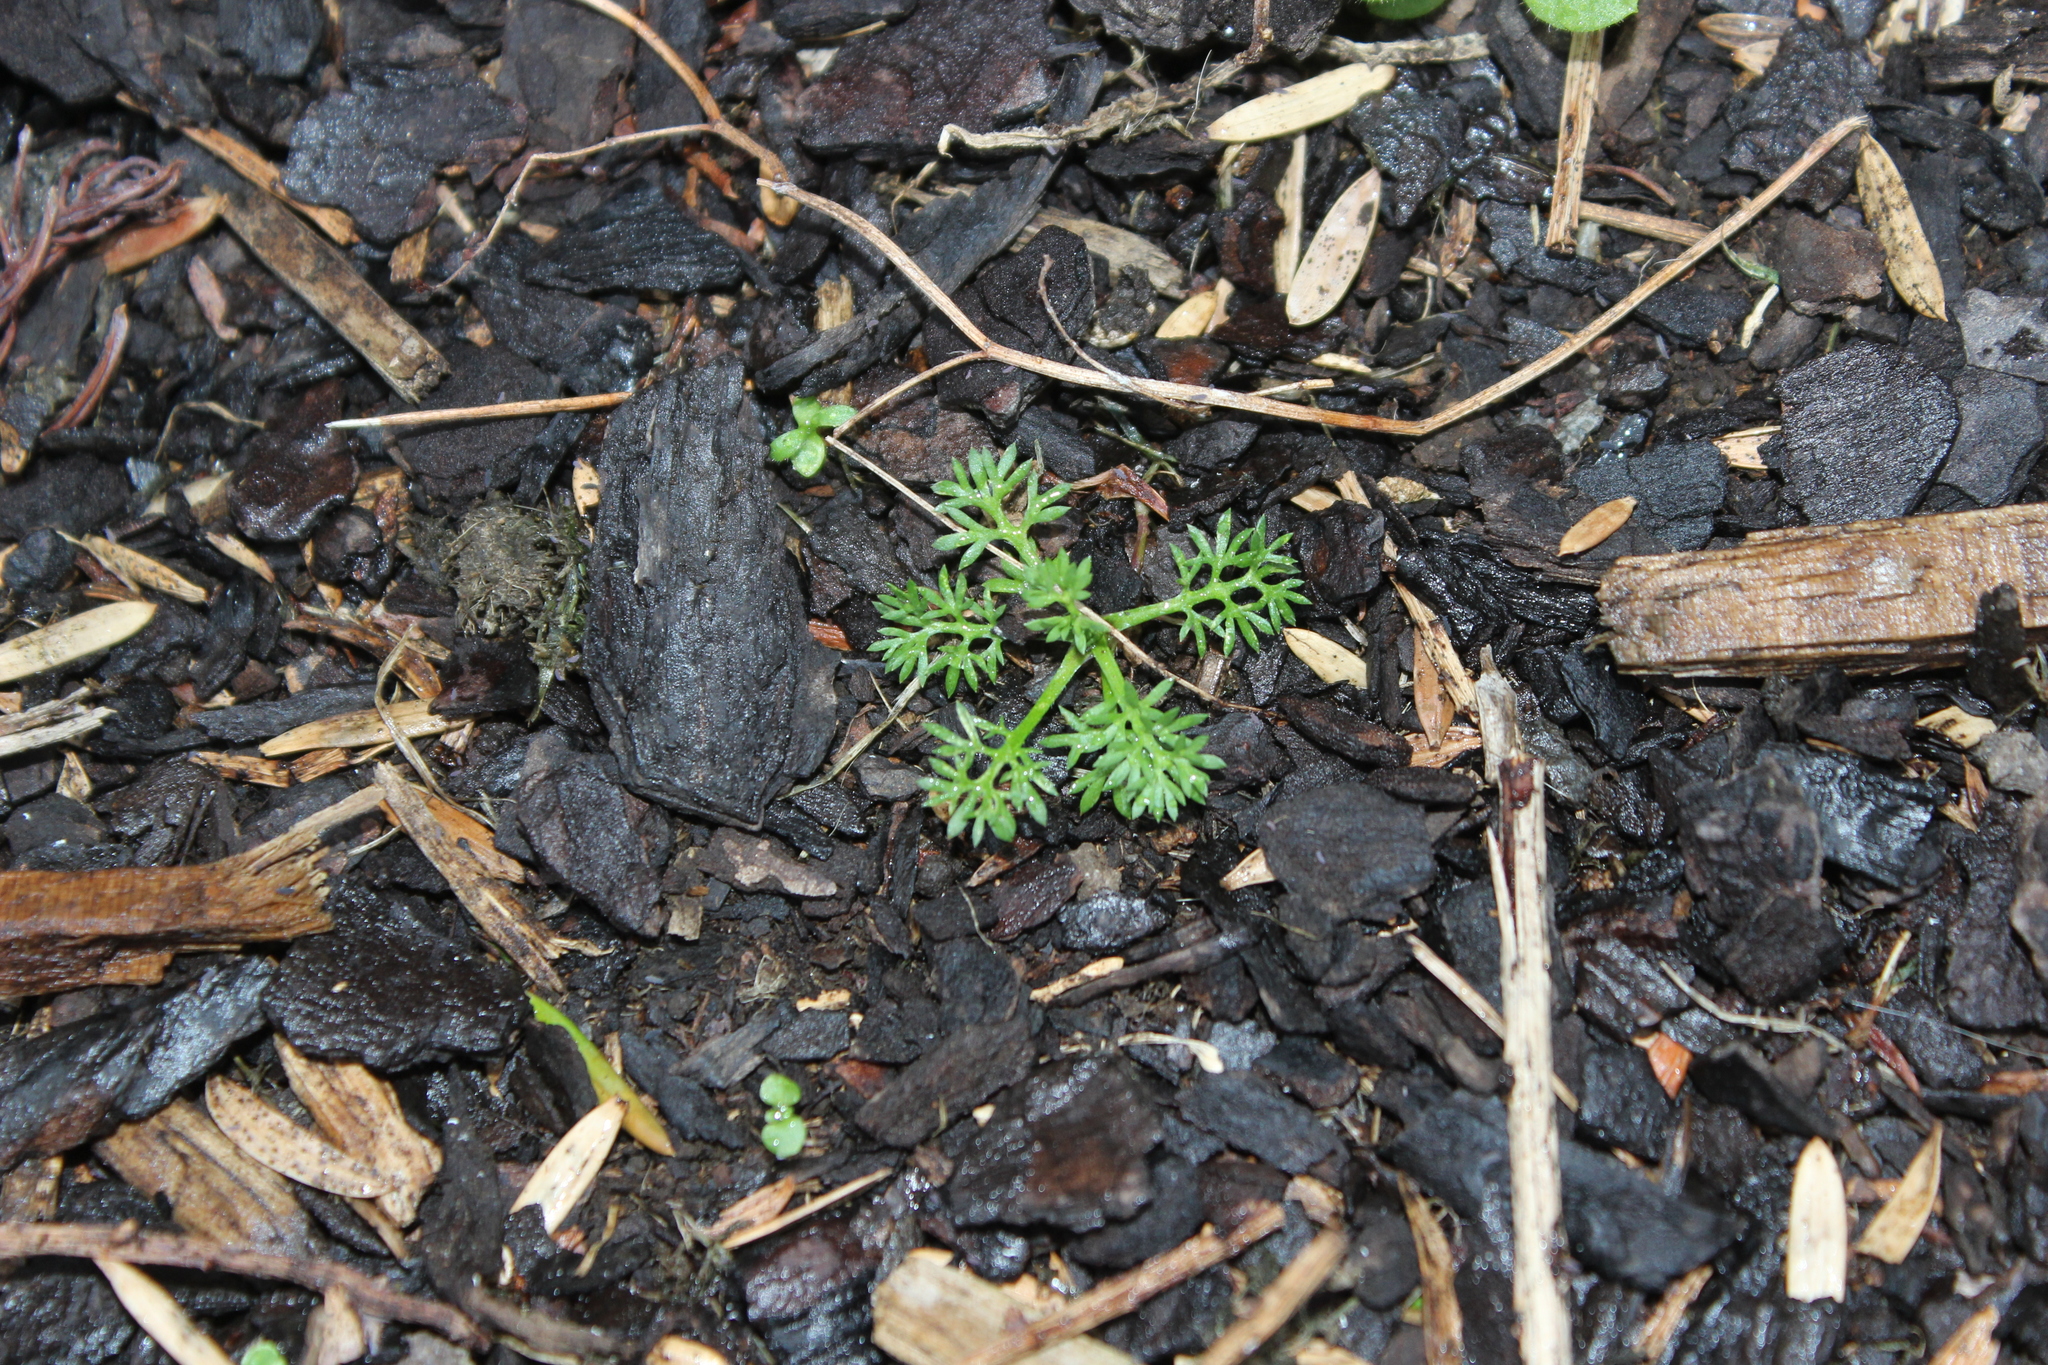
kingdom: Plantae
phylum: Tracheophyta
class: Magnoliopsida
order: Asterales
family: Asteraceae
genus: Soliva
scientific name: Soliva sessilis
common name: Field burrweed
